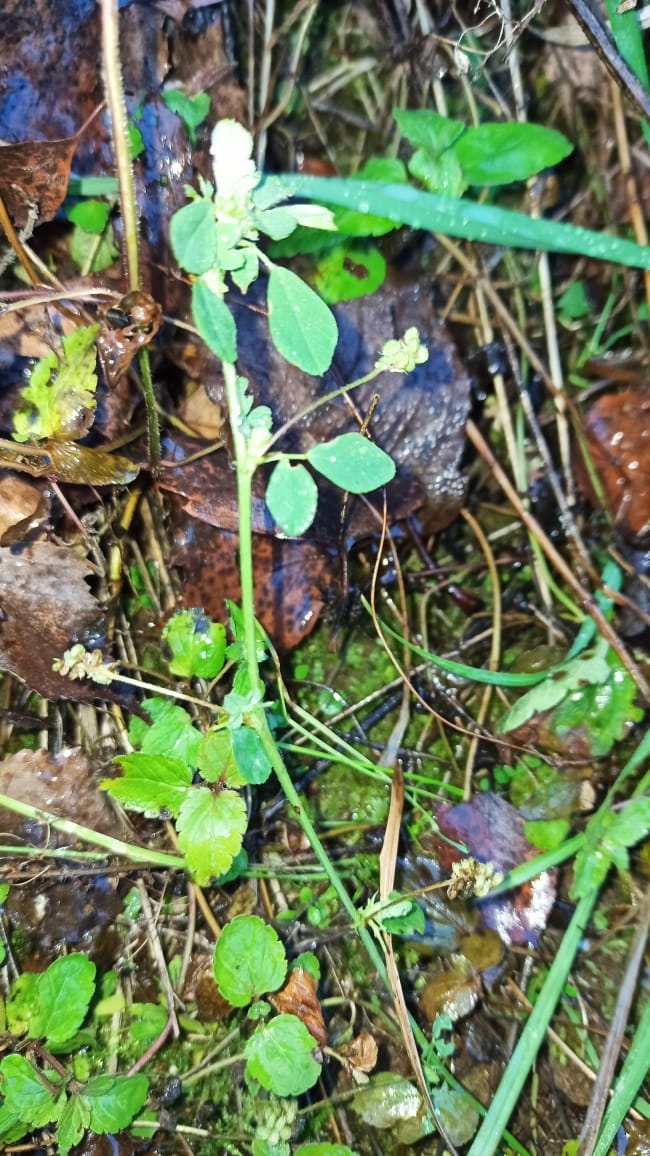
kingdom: Plantae
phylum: Tracheophyta
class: Magnoliopsida
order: Fabales
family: Fabaceae
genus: Medicago
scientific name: Medicago lupulina
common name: Black medick
